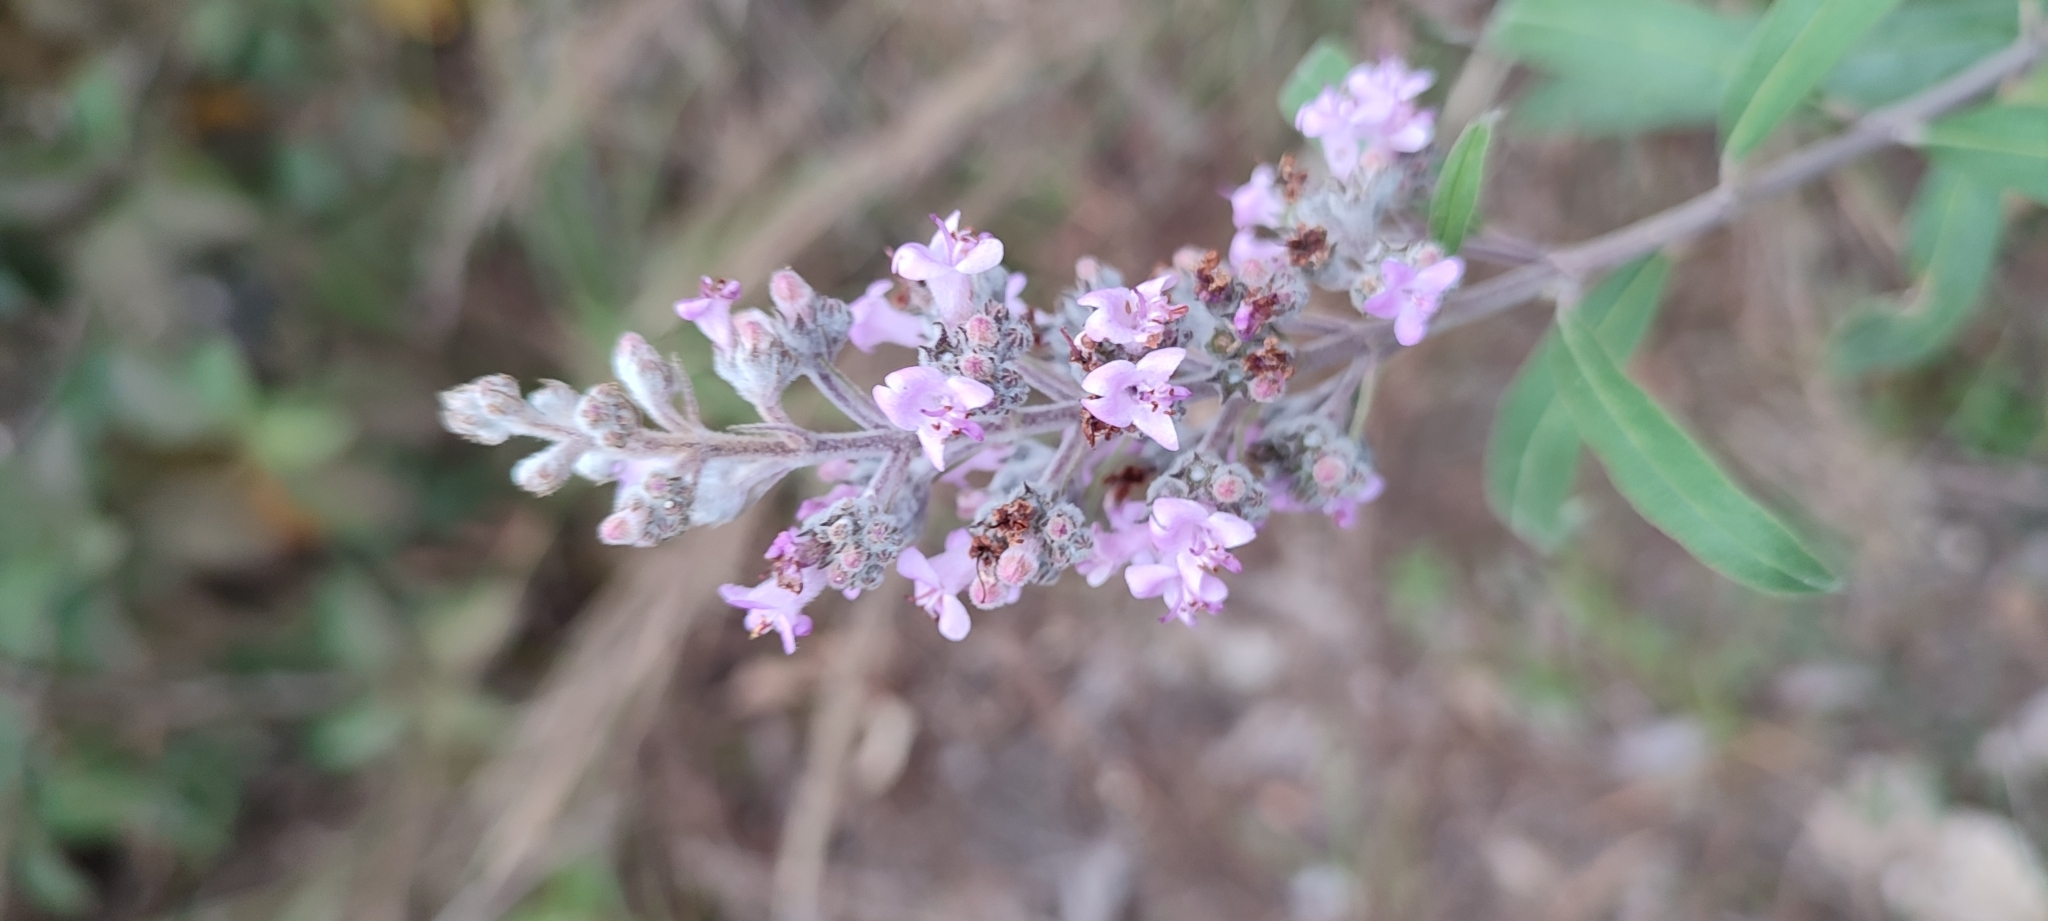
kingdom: Plantae
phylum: Tracheophyta
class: Magnoliopsida
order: Lamiales
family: Lamiaceae
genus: Hyptis
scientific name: Hyptis cualensis
